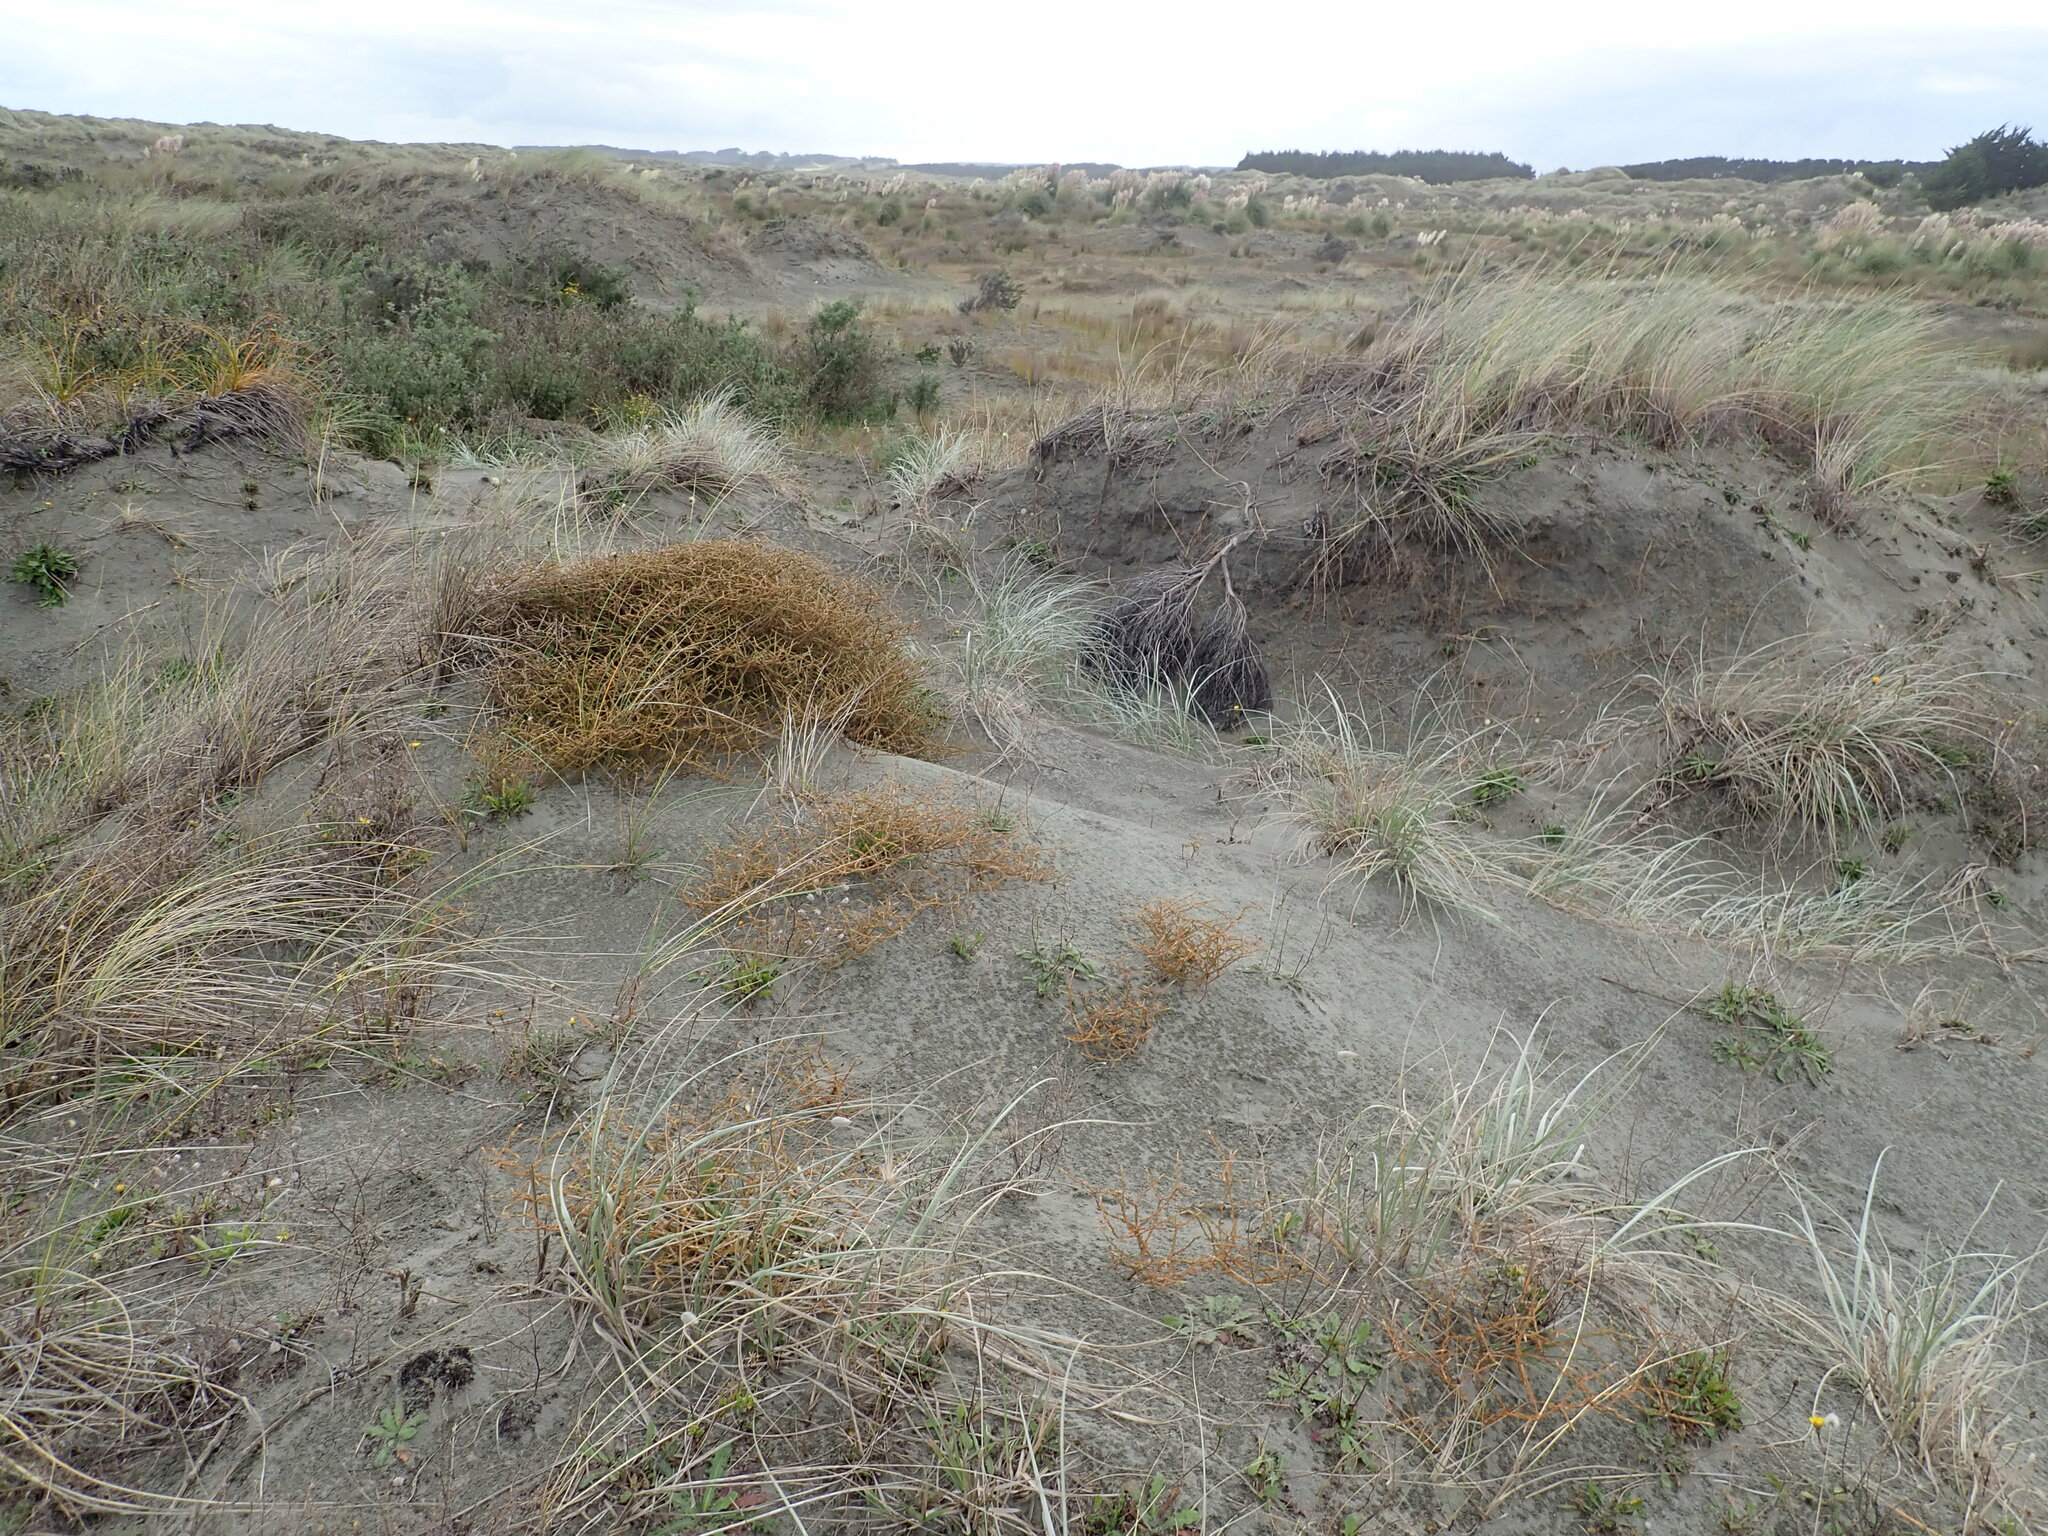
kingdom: Plantae
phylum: Tracheophyta
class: Magnoliopsida
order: Gentianales
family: Rubiaceae
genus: Coprosma
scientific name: Coprosma acerosa
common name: Sand coprosma
